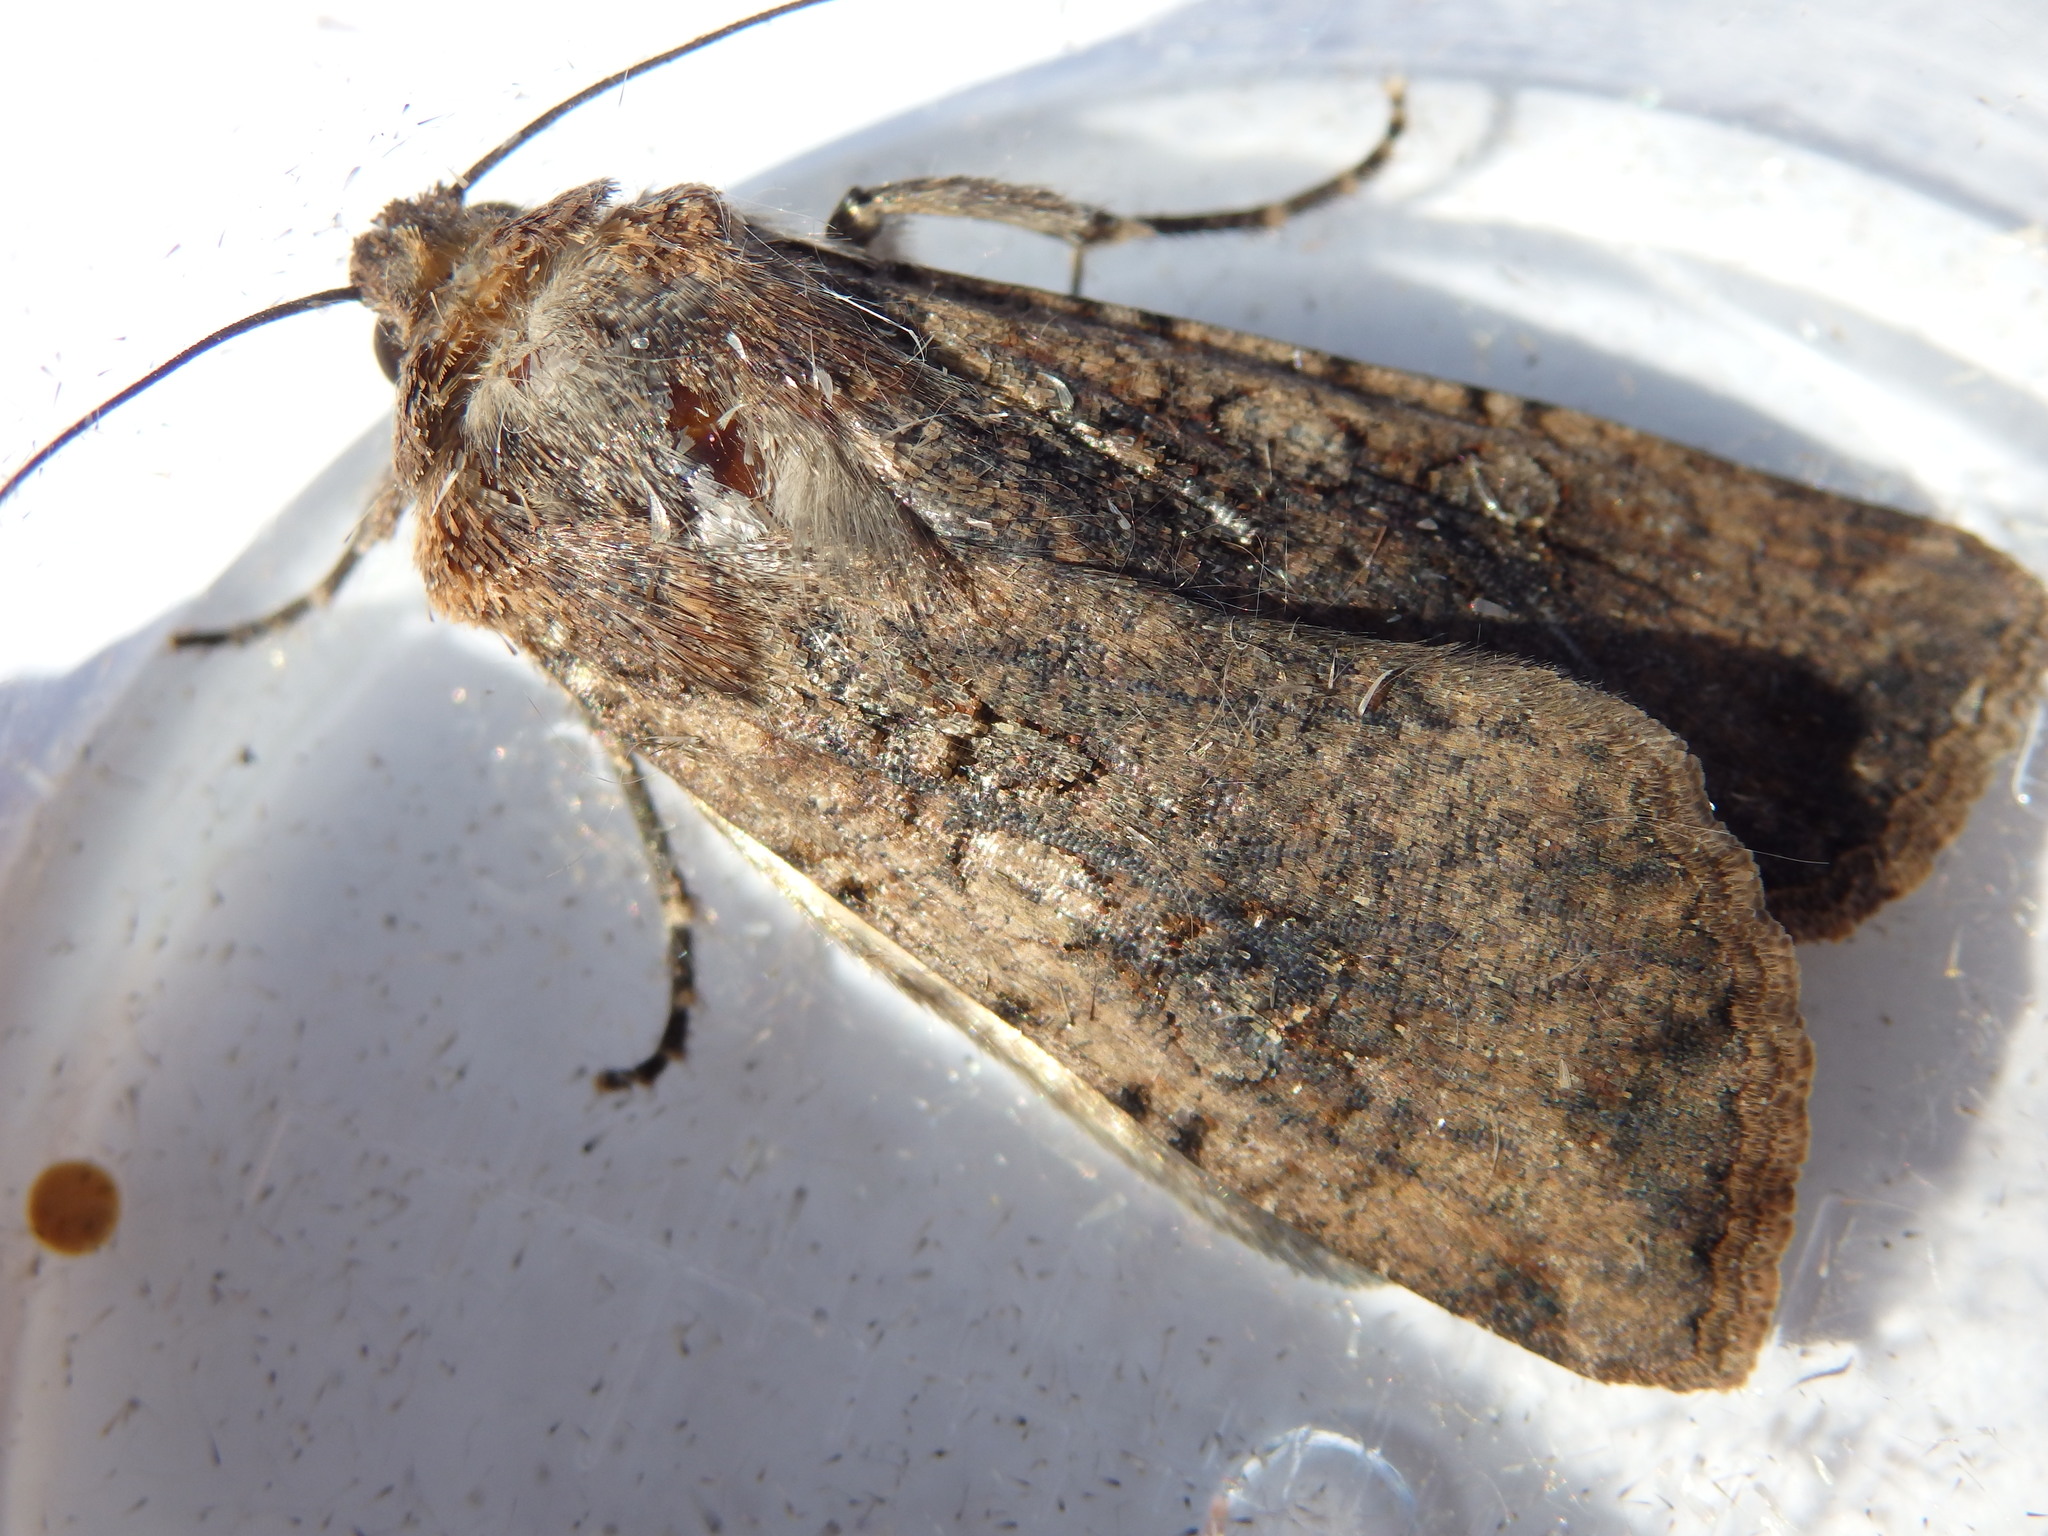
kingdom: Animalia
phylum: Arthropoda
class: Insecta
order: Lepidoptera
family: Noctuidae
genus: Peridroma
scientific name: Peridroma saucia
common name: Pearly underwing
